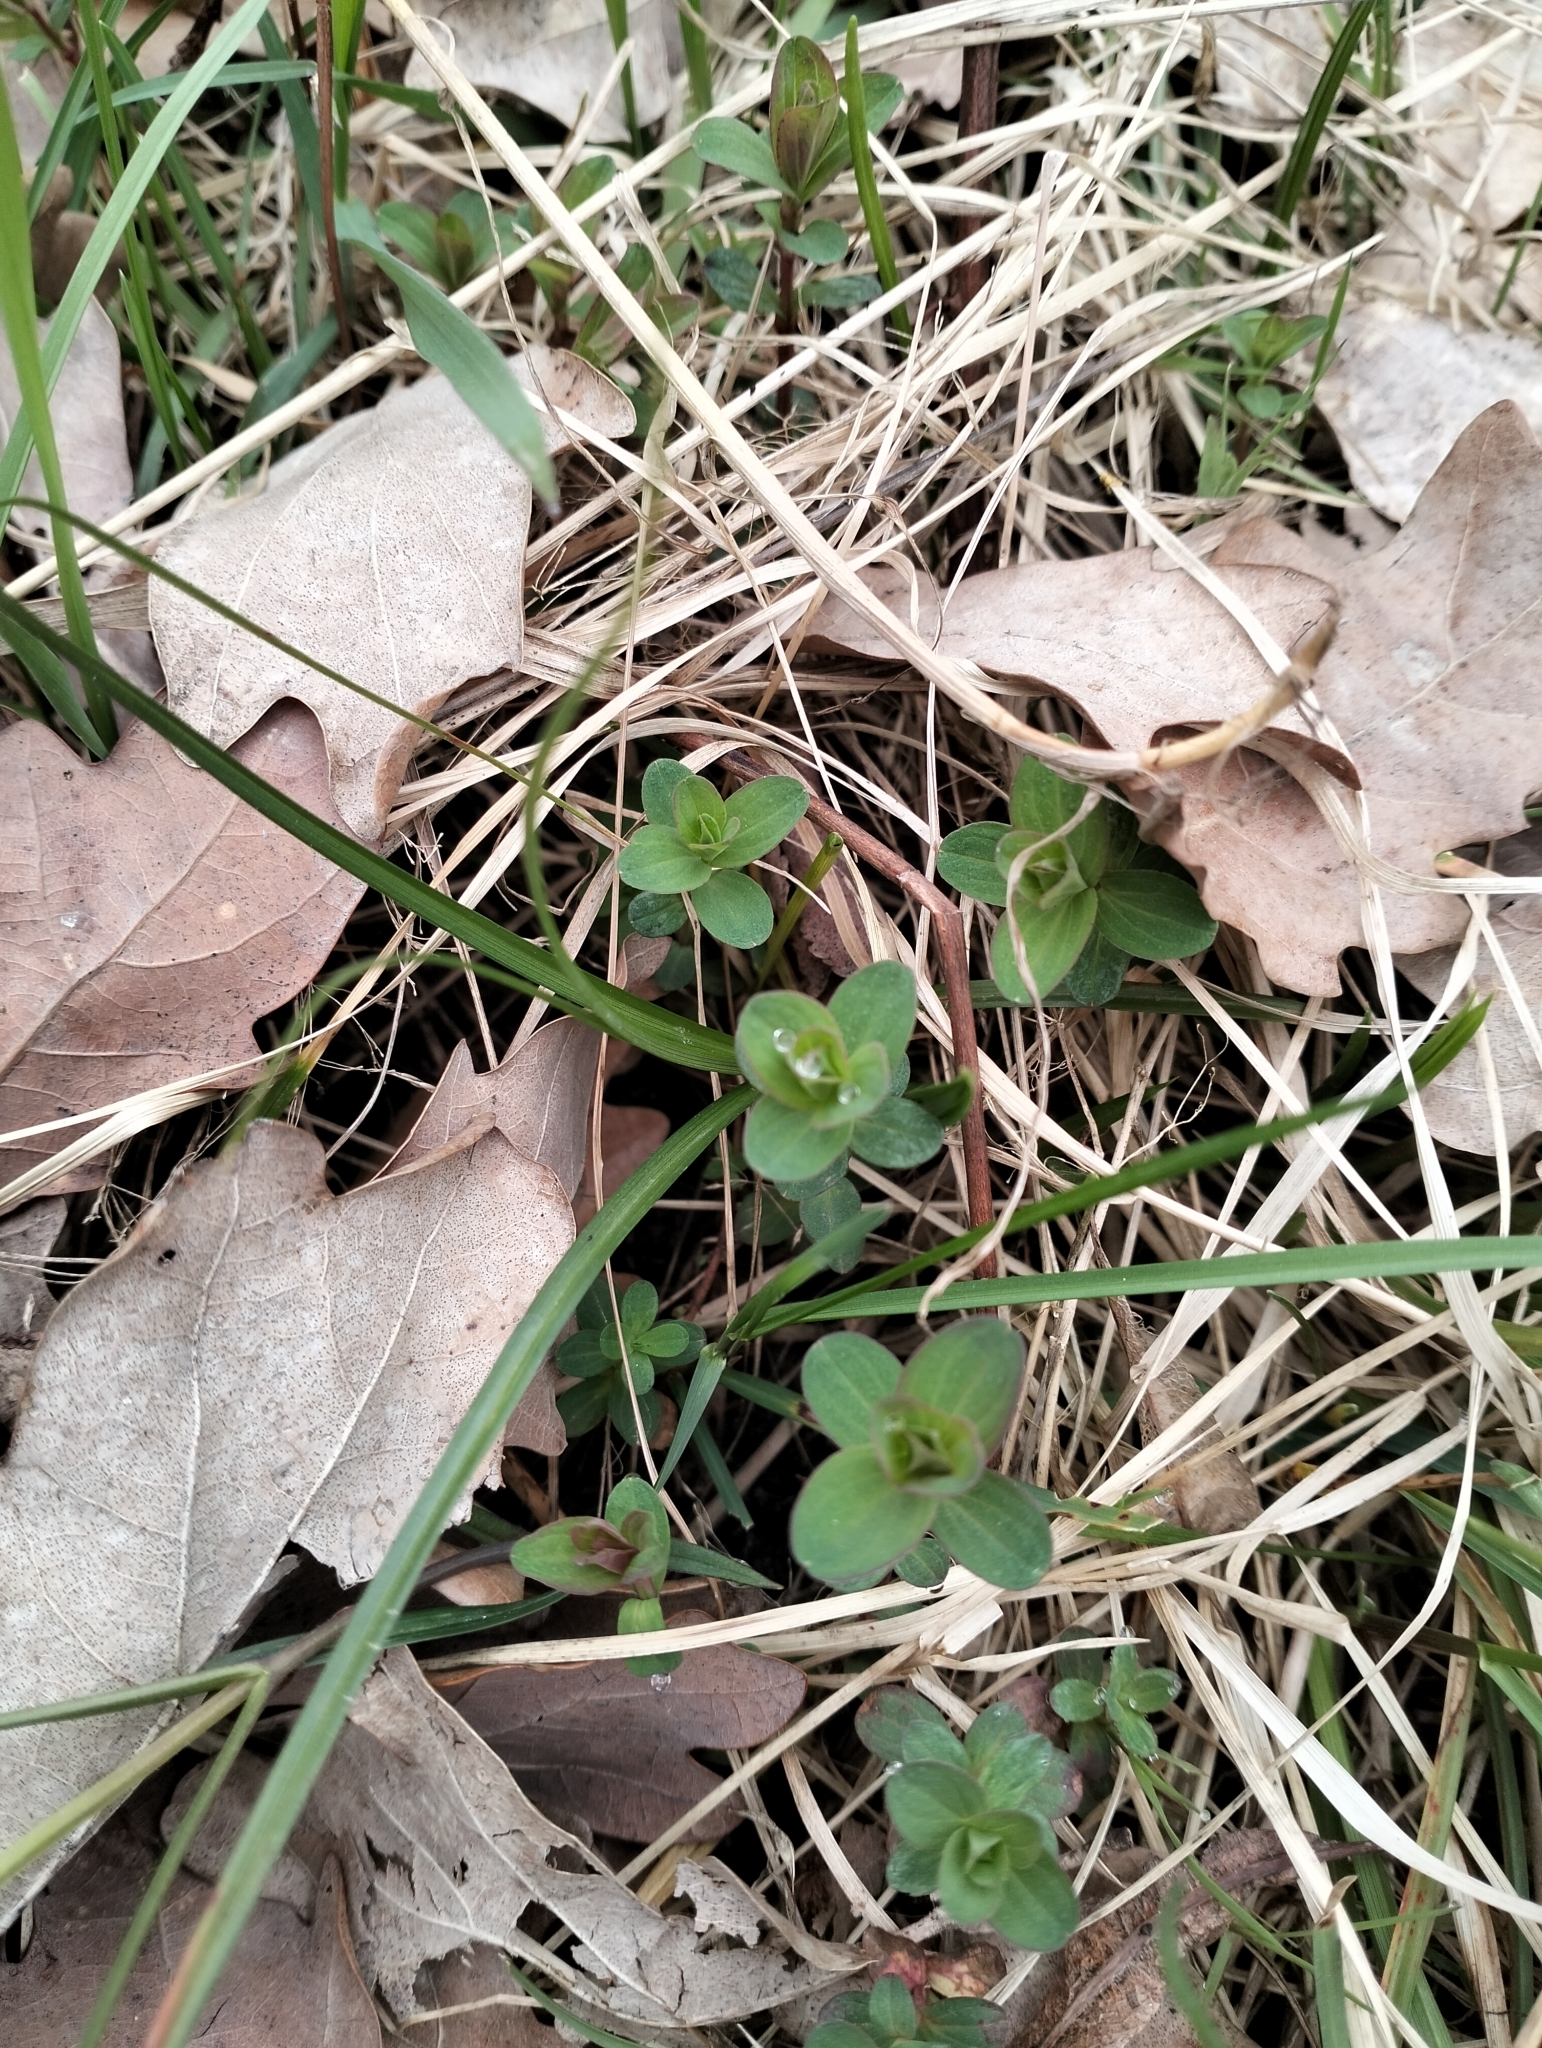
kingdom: Plantae
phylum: Tracheophyta
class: Magnoliopsida
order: Malpighiales
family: Hypericaceae
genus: Hypericum
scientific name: Hypericum perforatum
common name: Common st. johnswort
